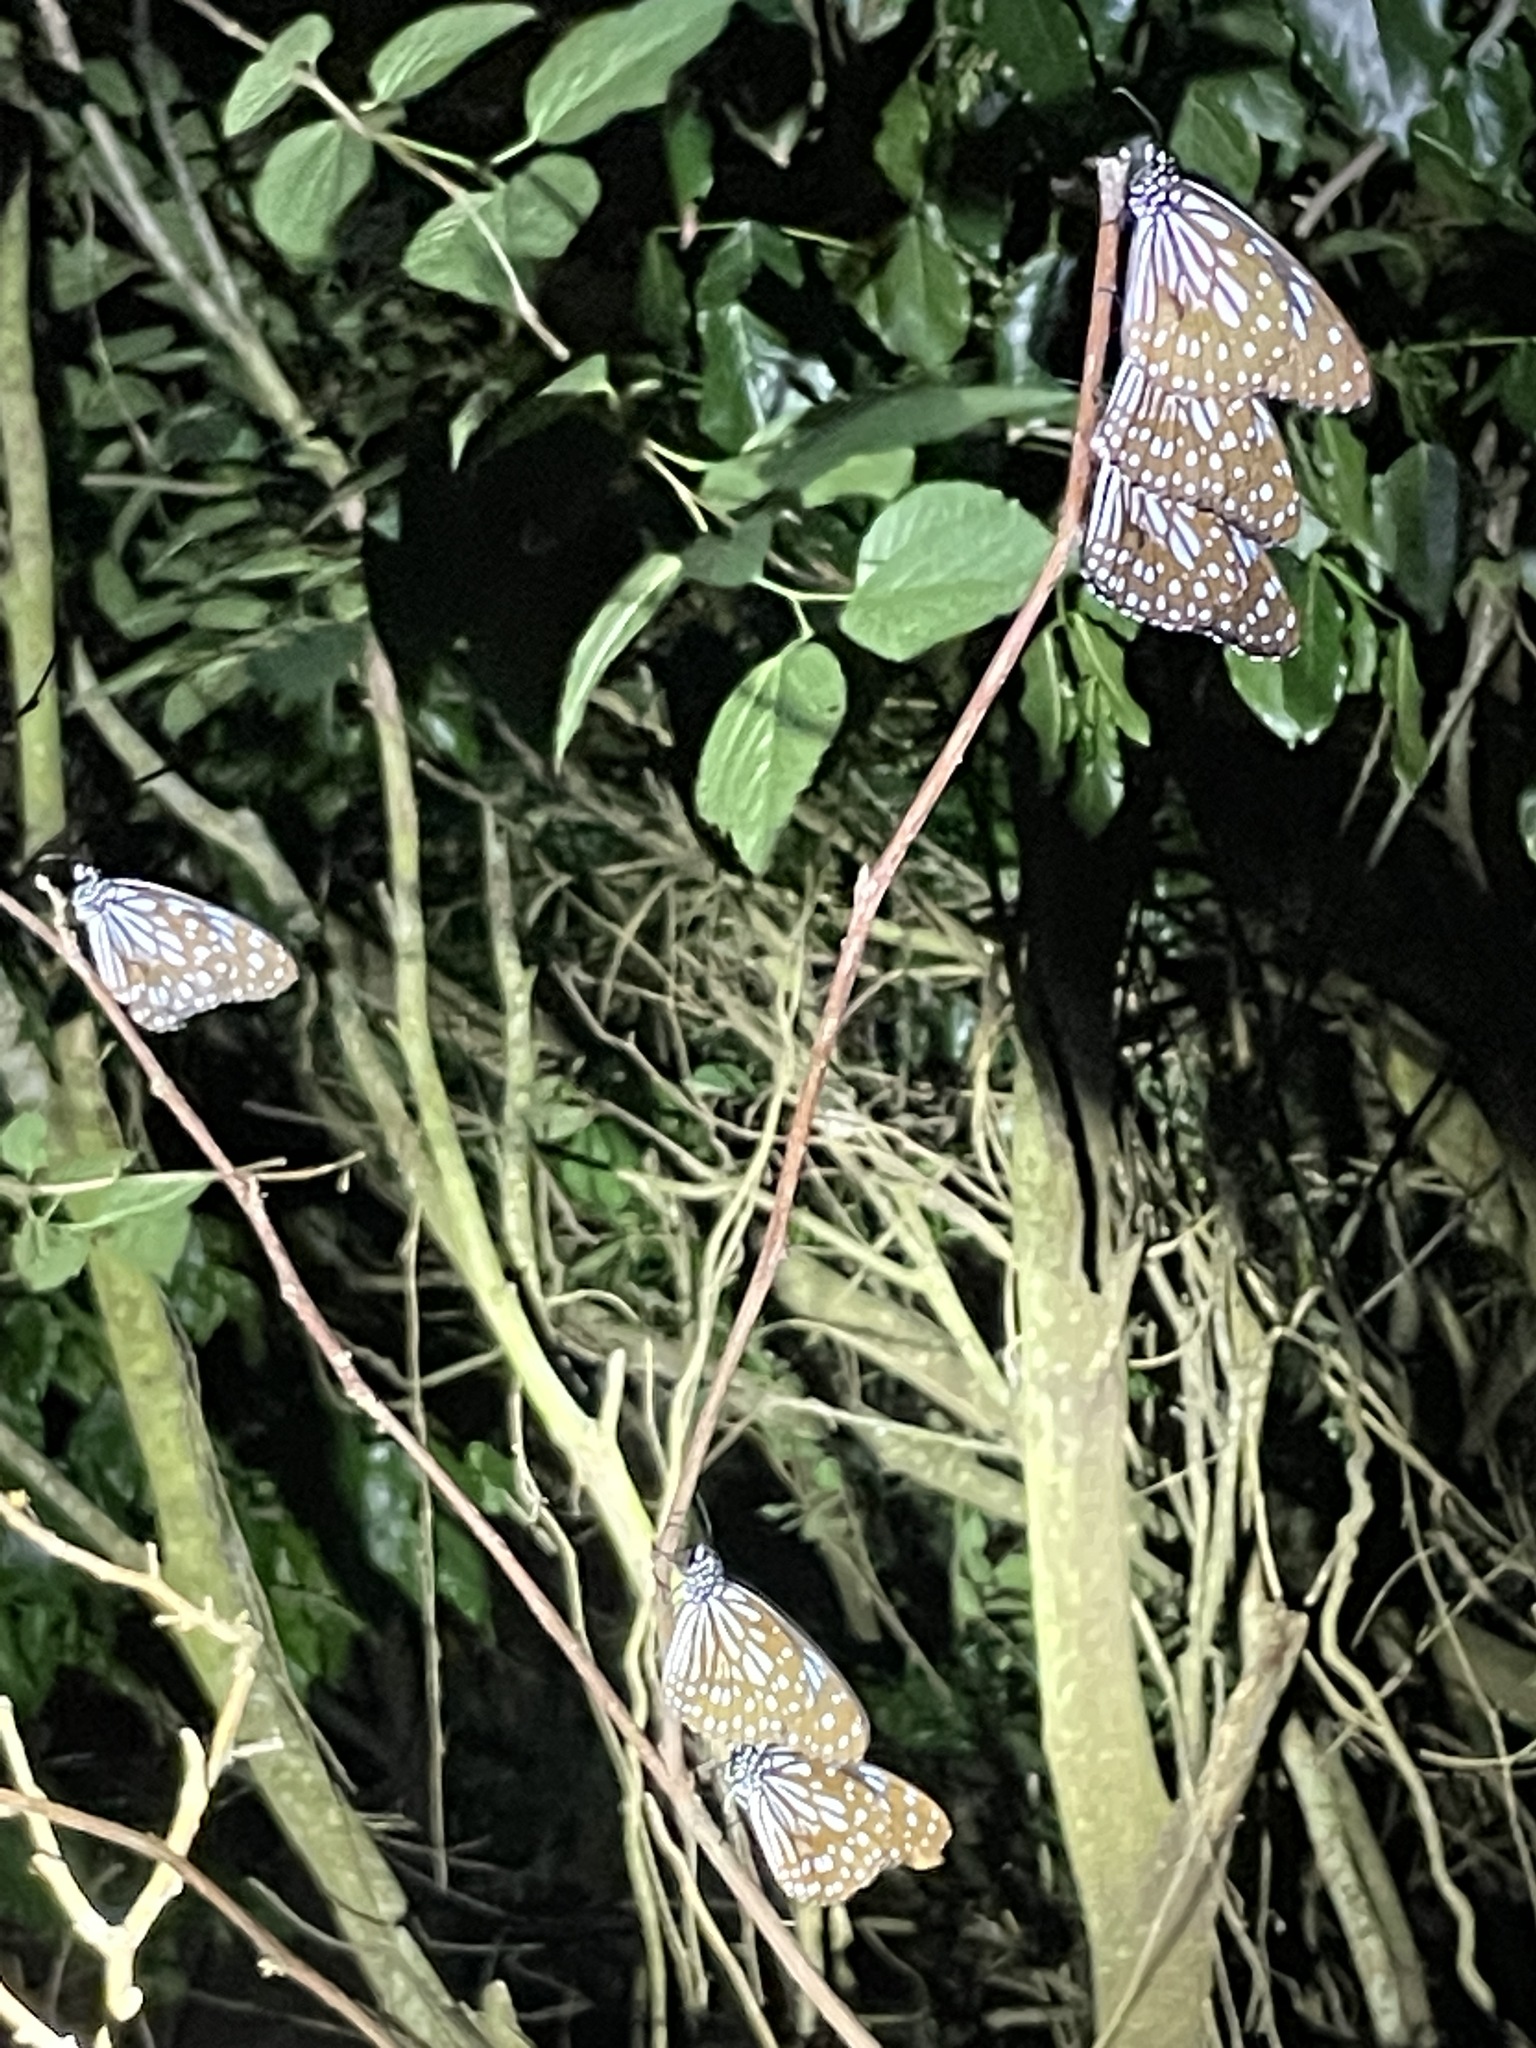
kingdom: Animalia
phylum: Arthropoda
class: Insecta
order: Lepidoptera
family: Nymphalidae
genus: Tirumala
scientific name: Tirumala limniace
